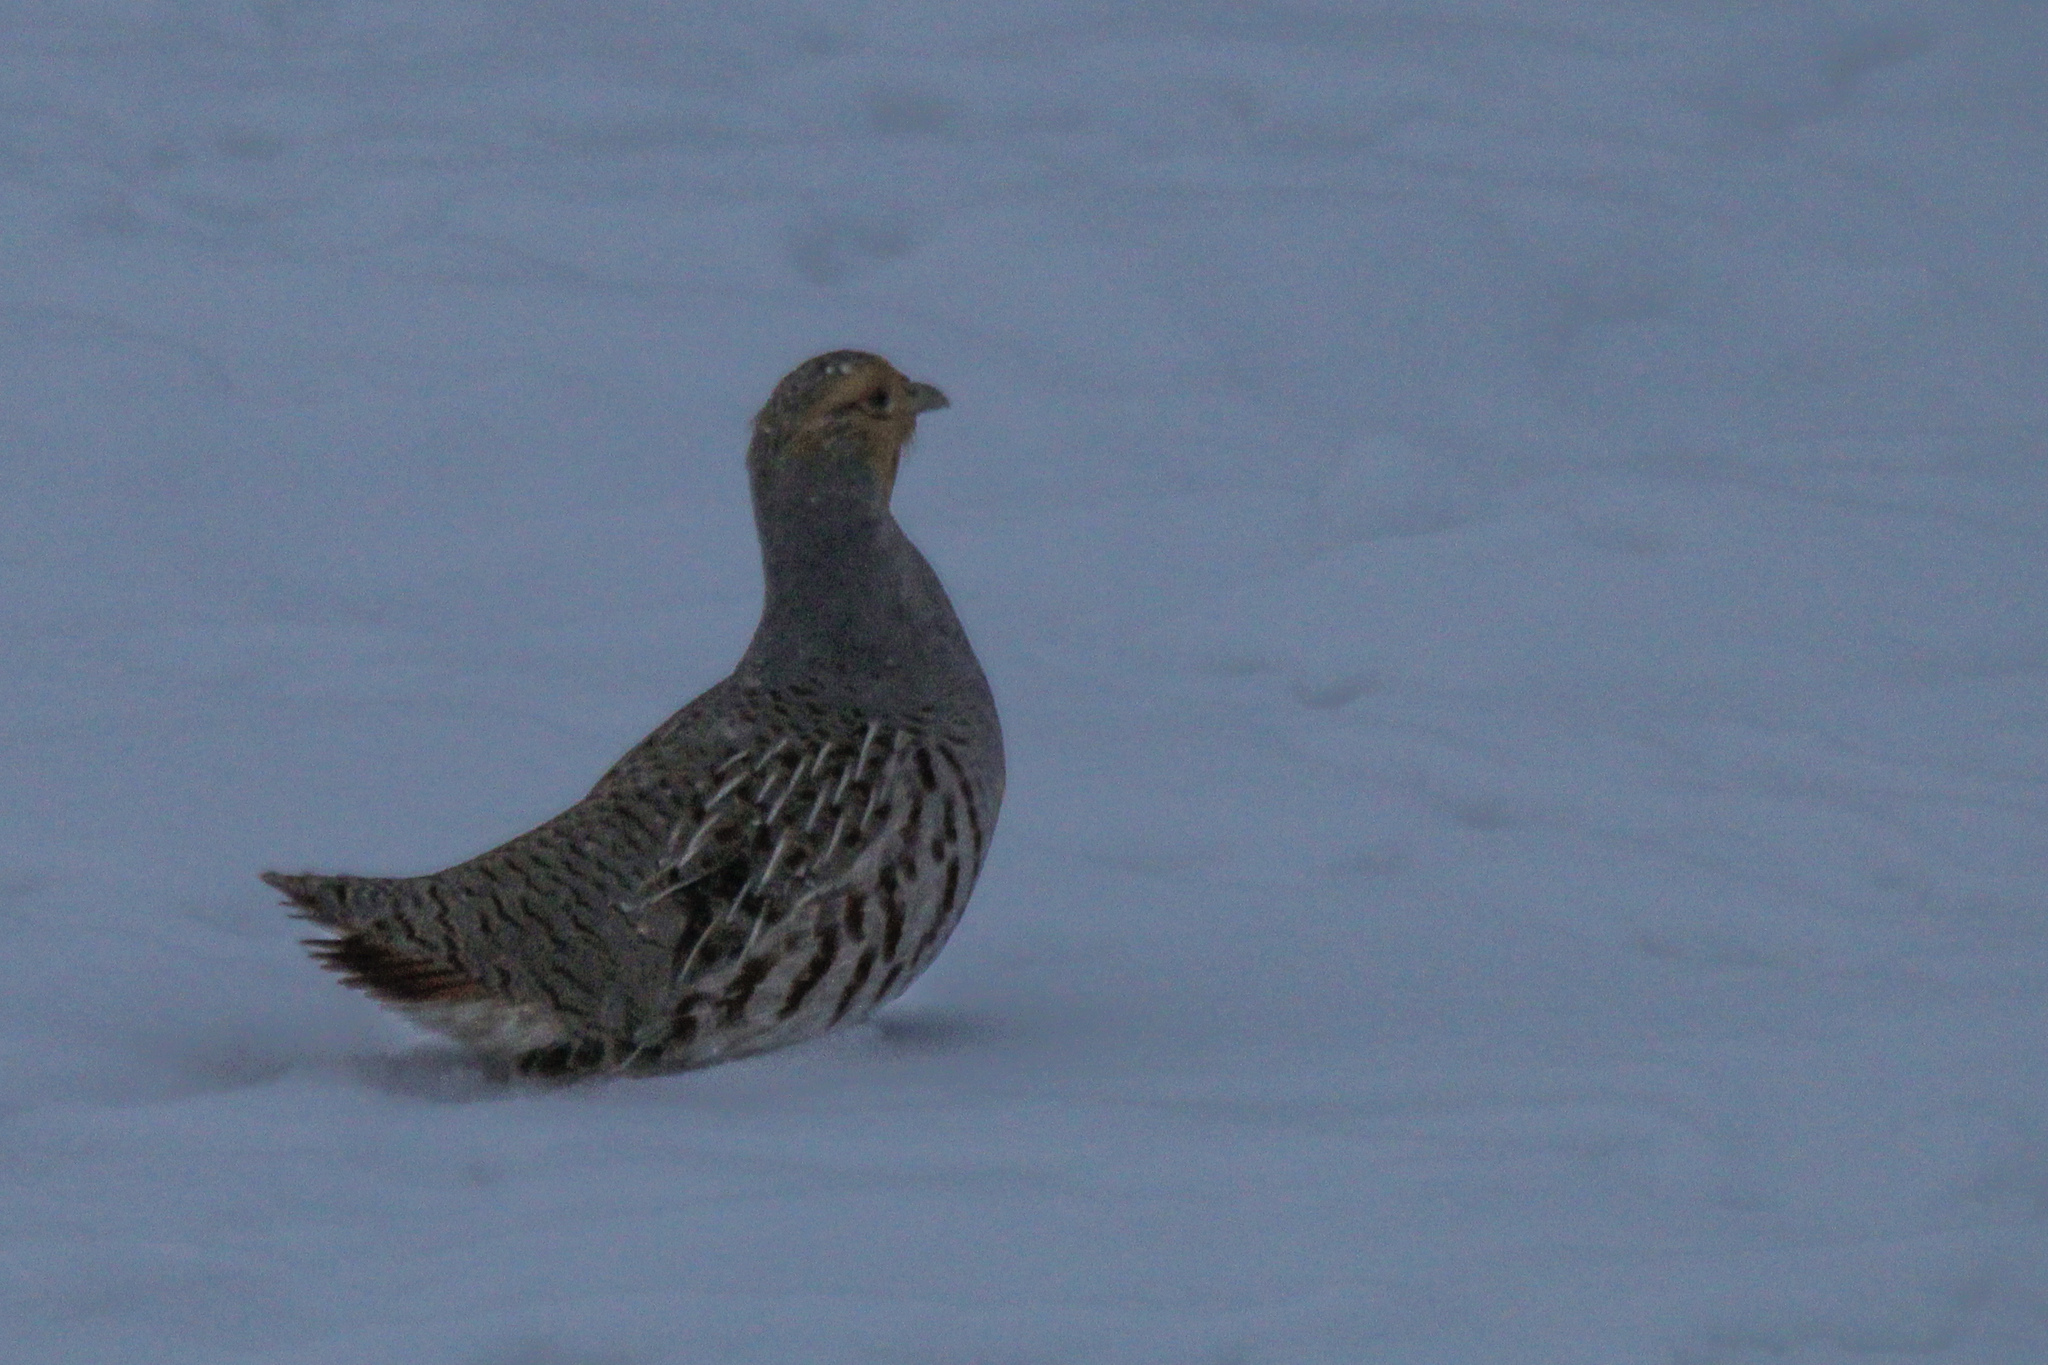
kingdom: Animalia
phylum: Chordata
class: Aves
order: Galliformes
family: Phasianidae
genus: Perdix
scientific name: Perdix dauurica
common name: Daurian partridge
